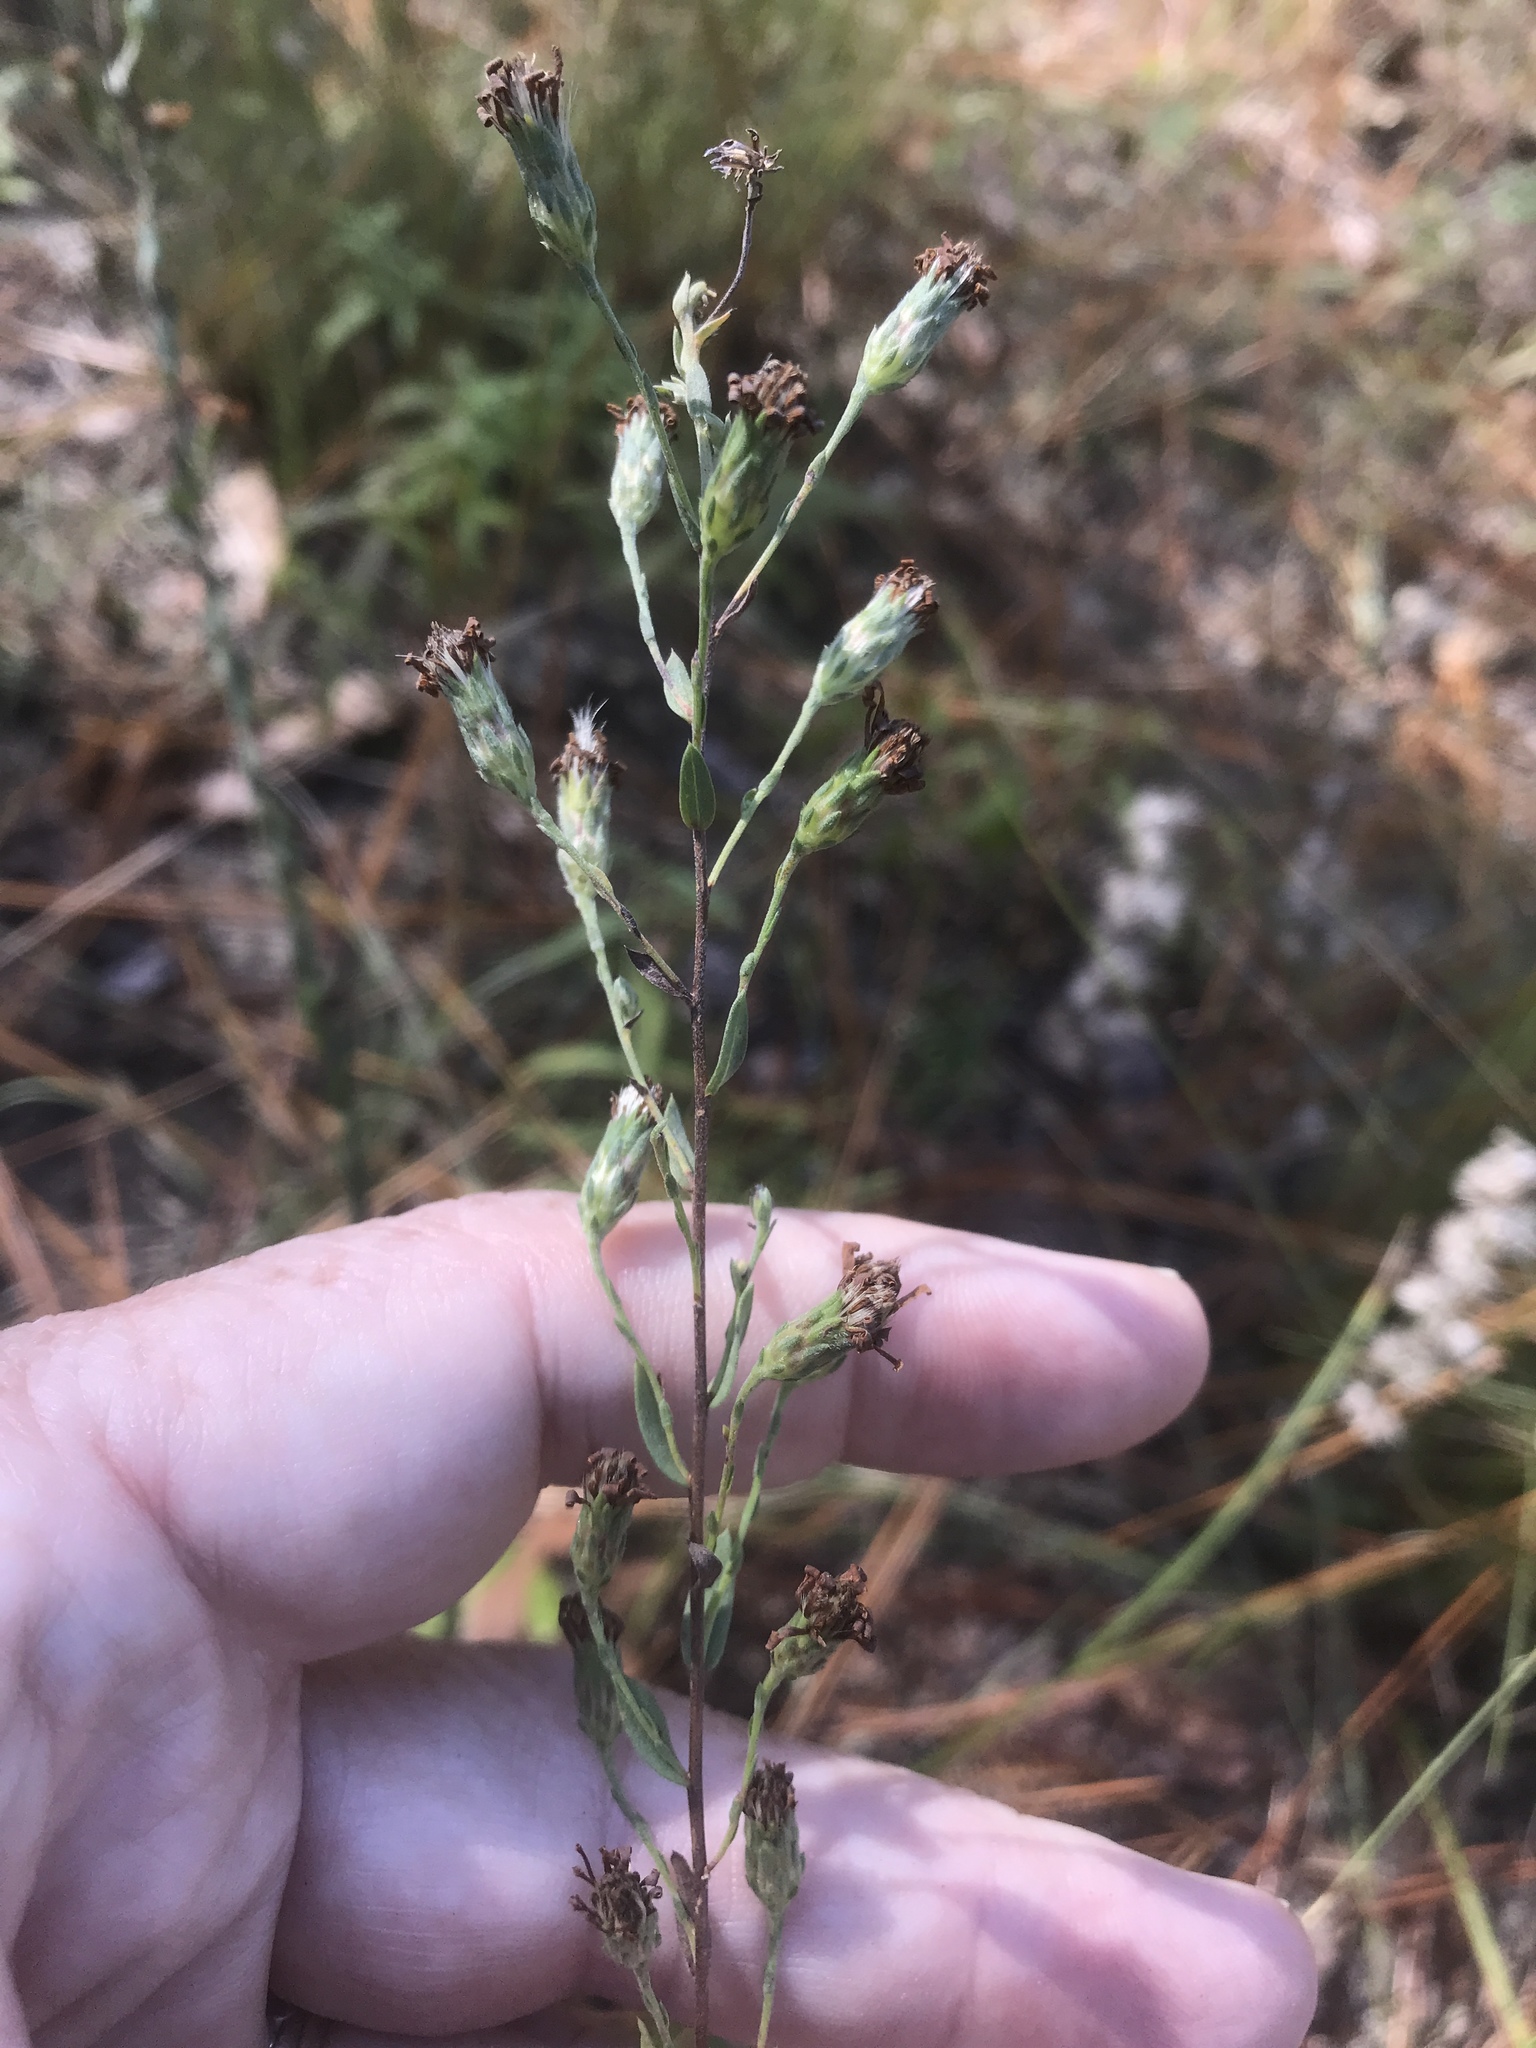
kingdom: Plantae
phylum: Tracheophyta
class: Magnoliopsida
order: Asterales
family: Asteraceae
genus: Symphyotrichum
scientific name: Symphyotrichum concolor
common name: Eastern silver aster
